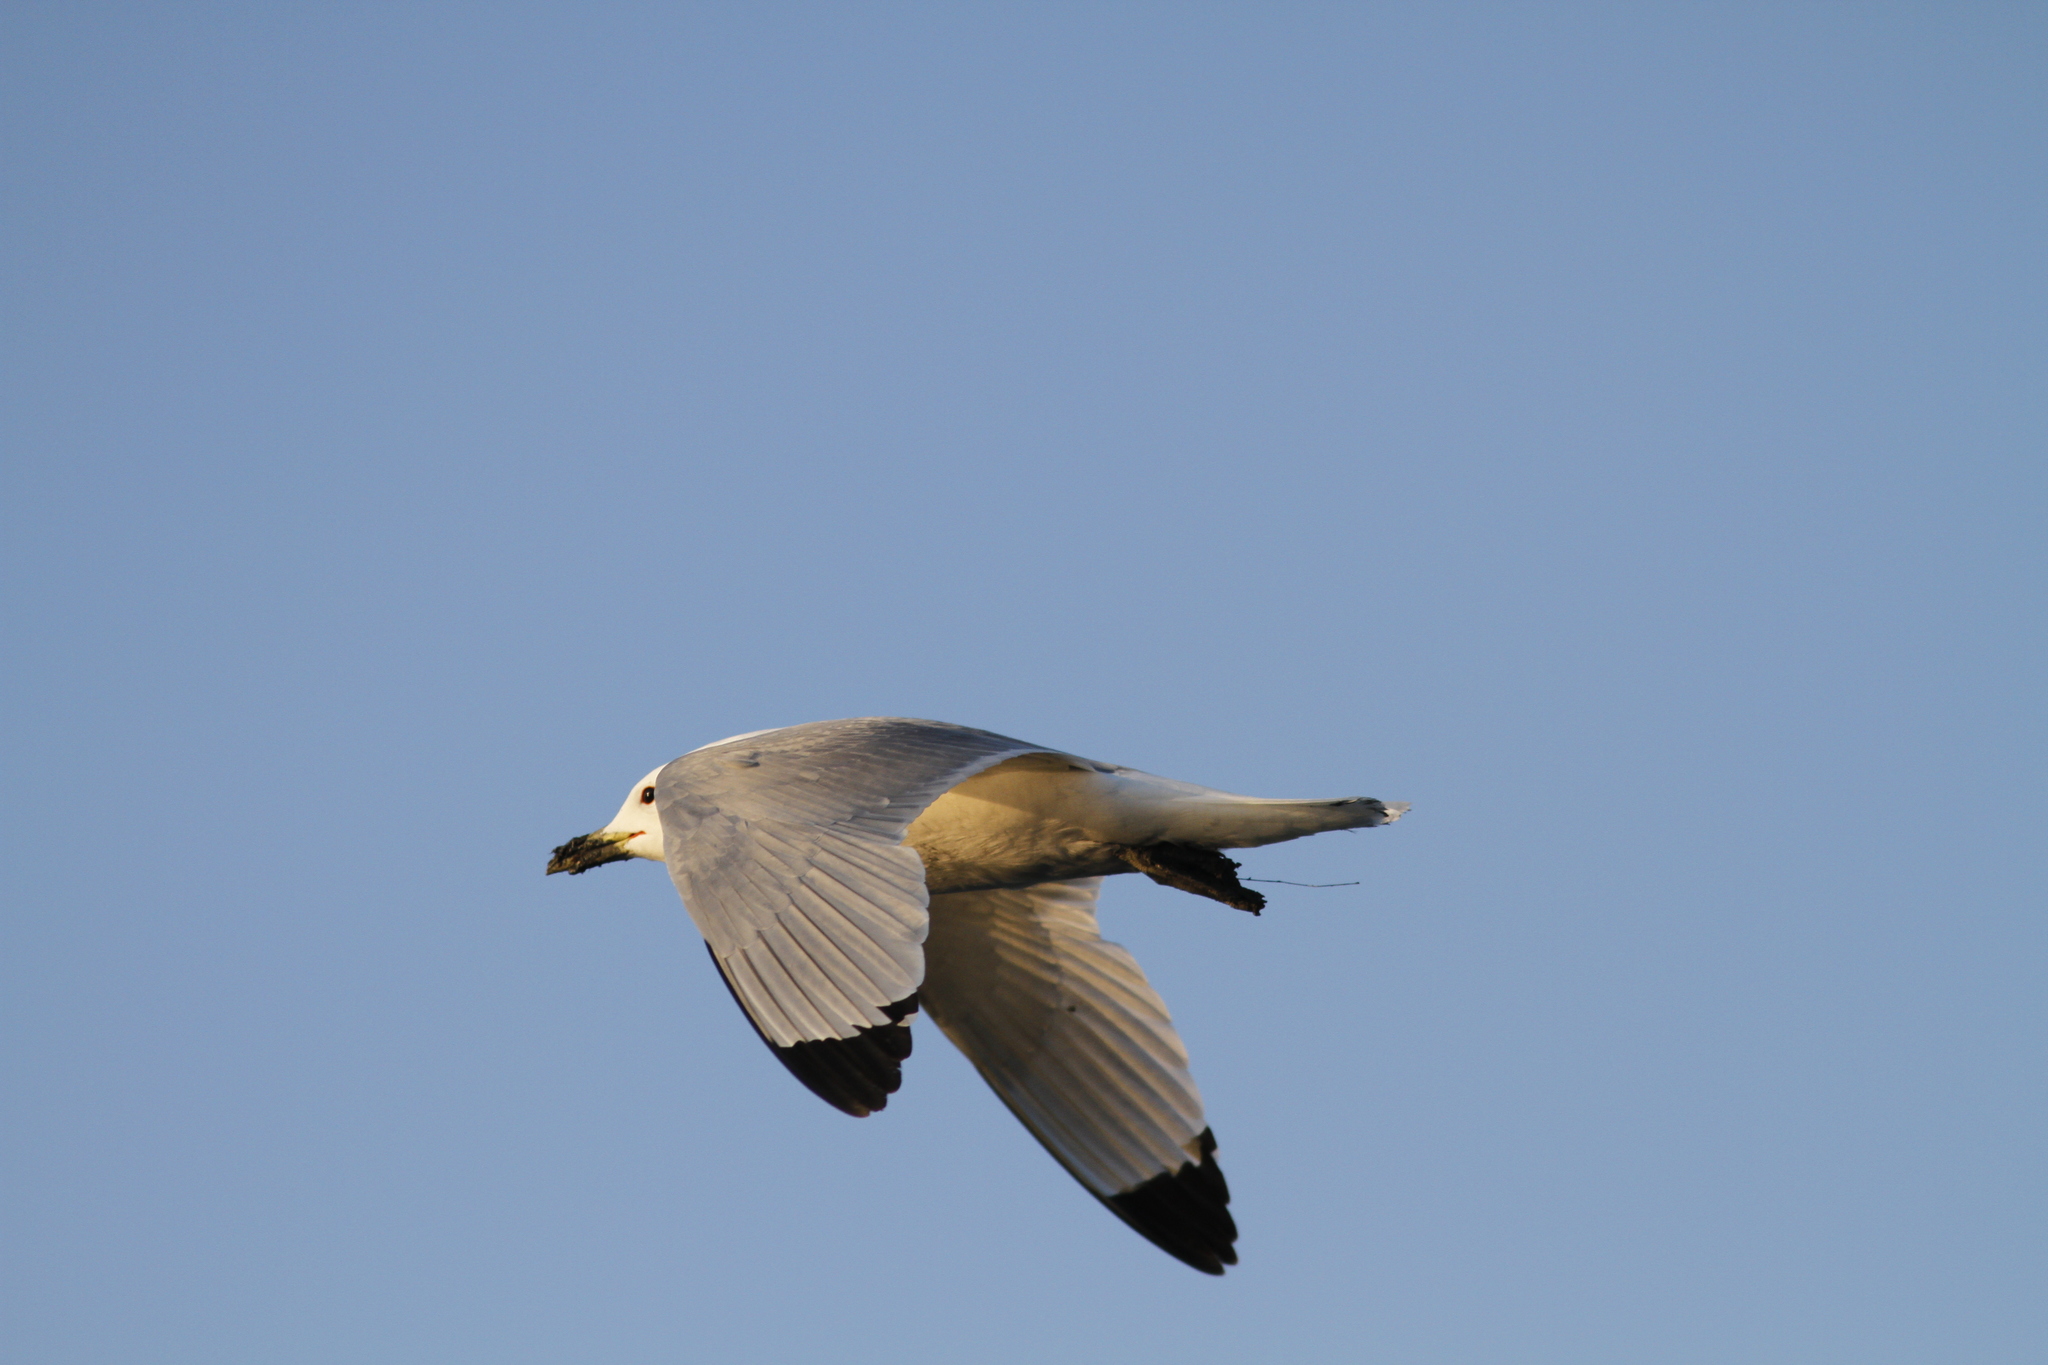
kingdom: Animalia
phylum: Chordata
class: Aves
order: Charadriiformes
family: Laridae
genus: Rissa
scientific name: Rissa tridactyla
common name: Black-legged kittiwake
